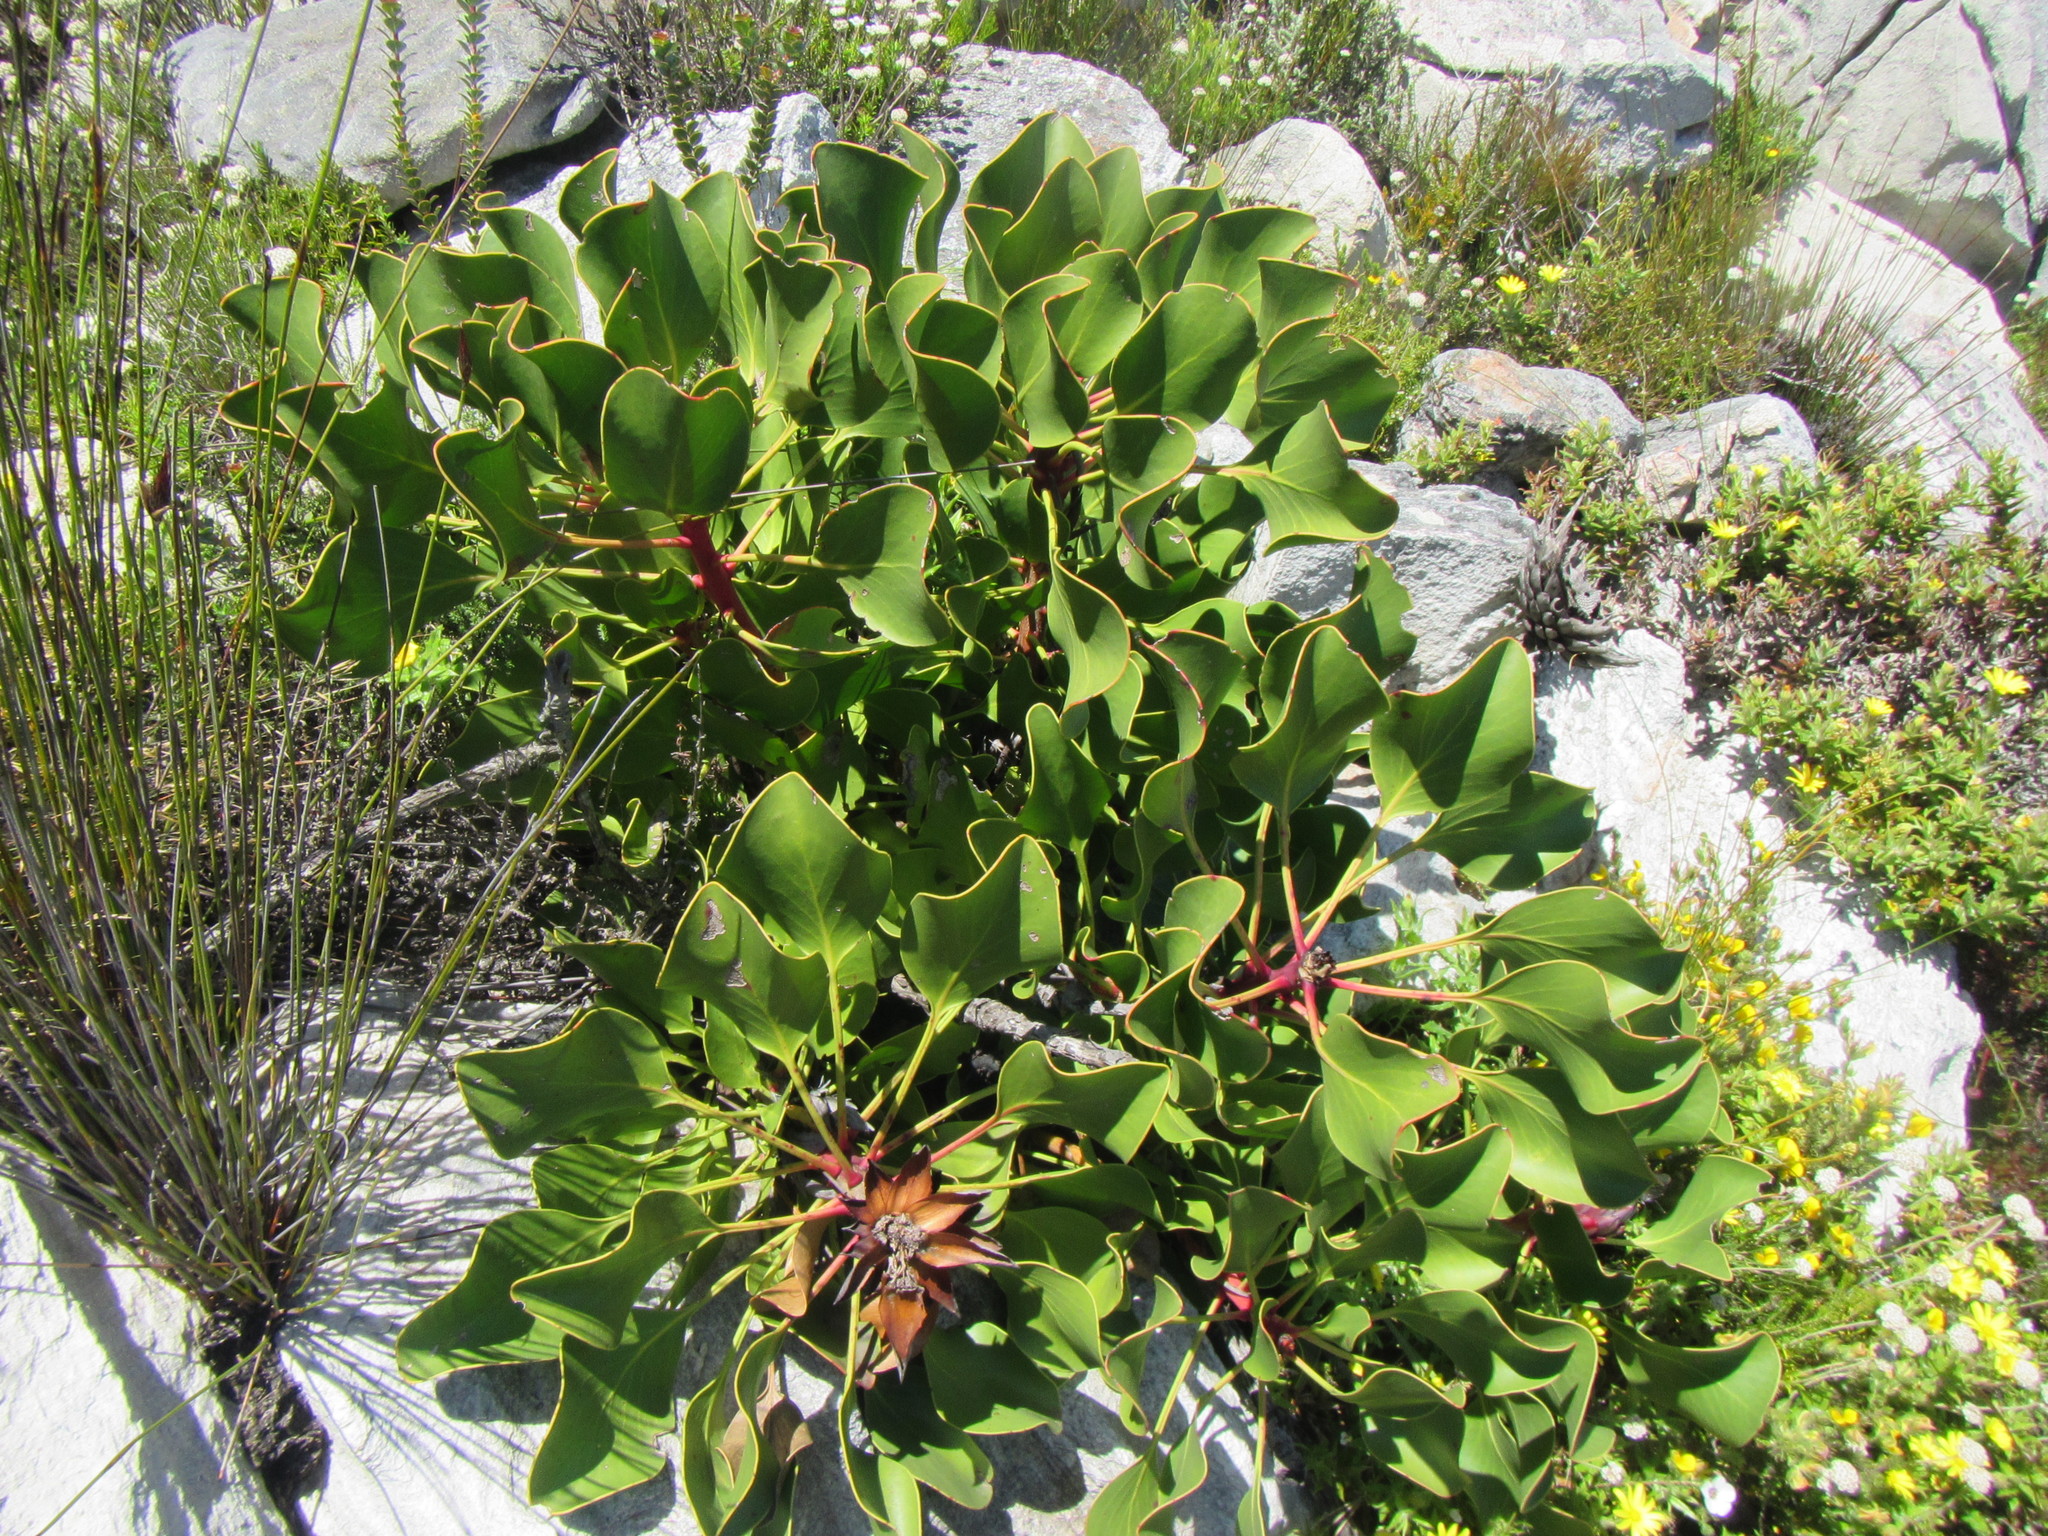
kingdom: Plantae
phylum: Tracheophyta
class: Magnoliopsida
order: Proteales
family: Proteaceae
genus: Protea
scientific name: Protea cynaroides
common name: King protea
